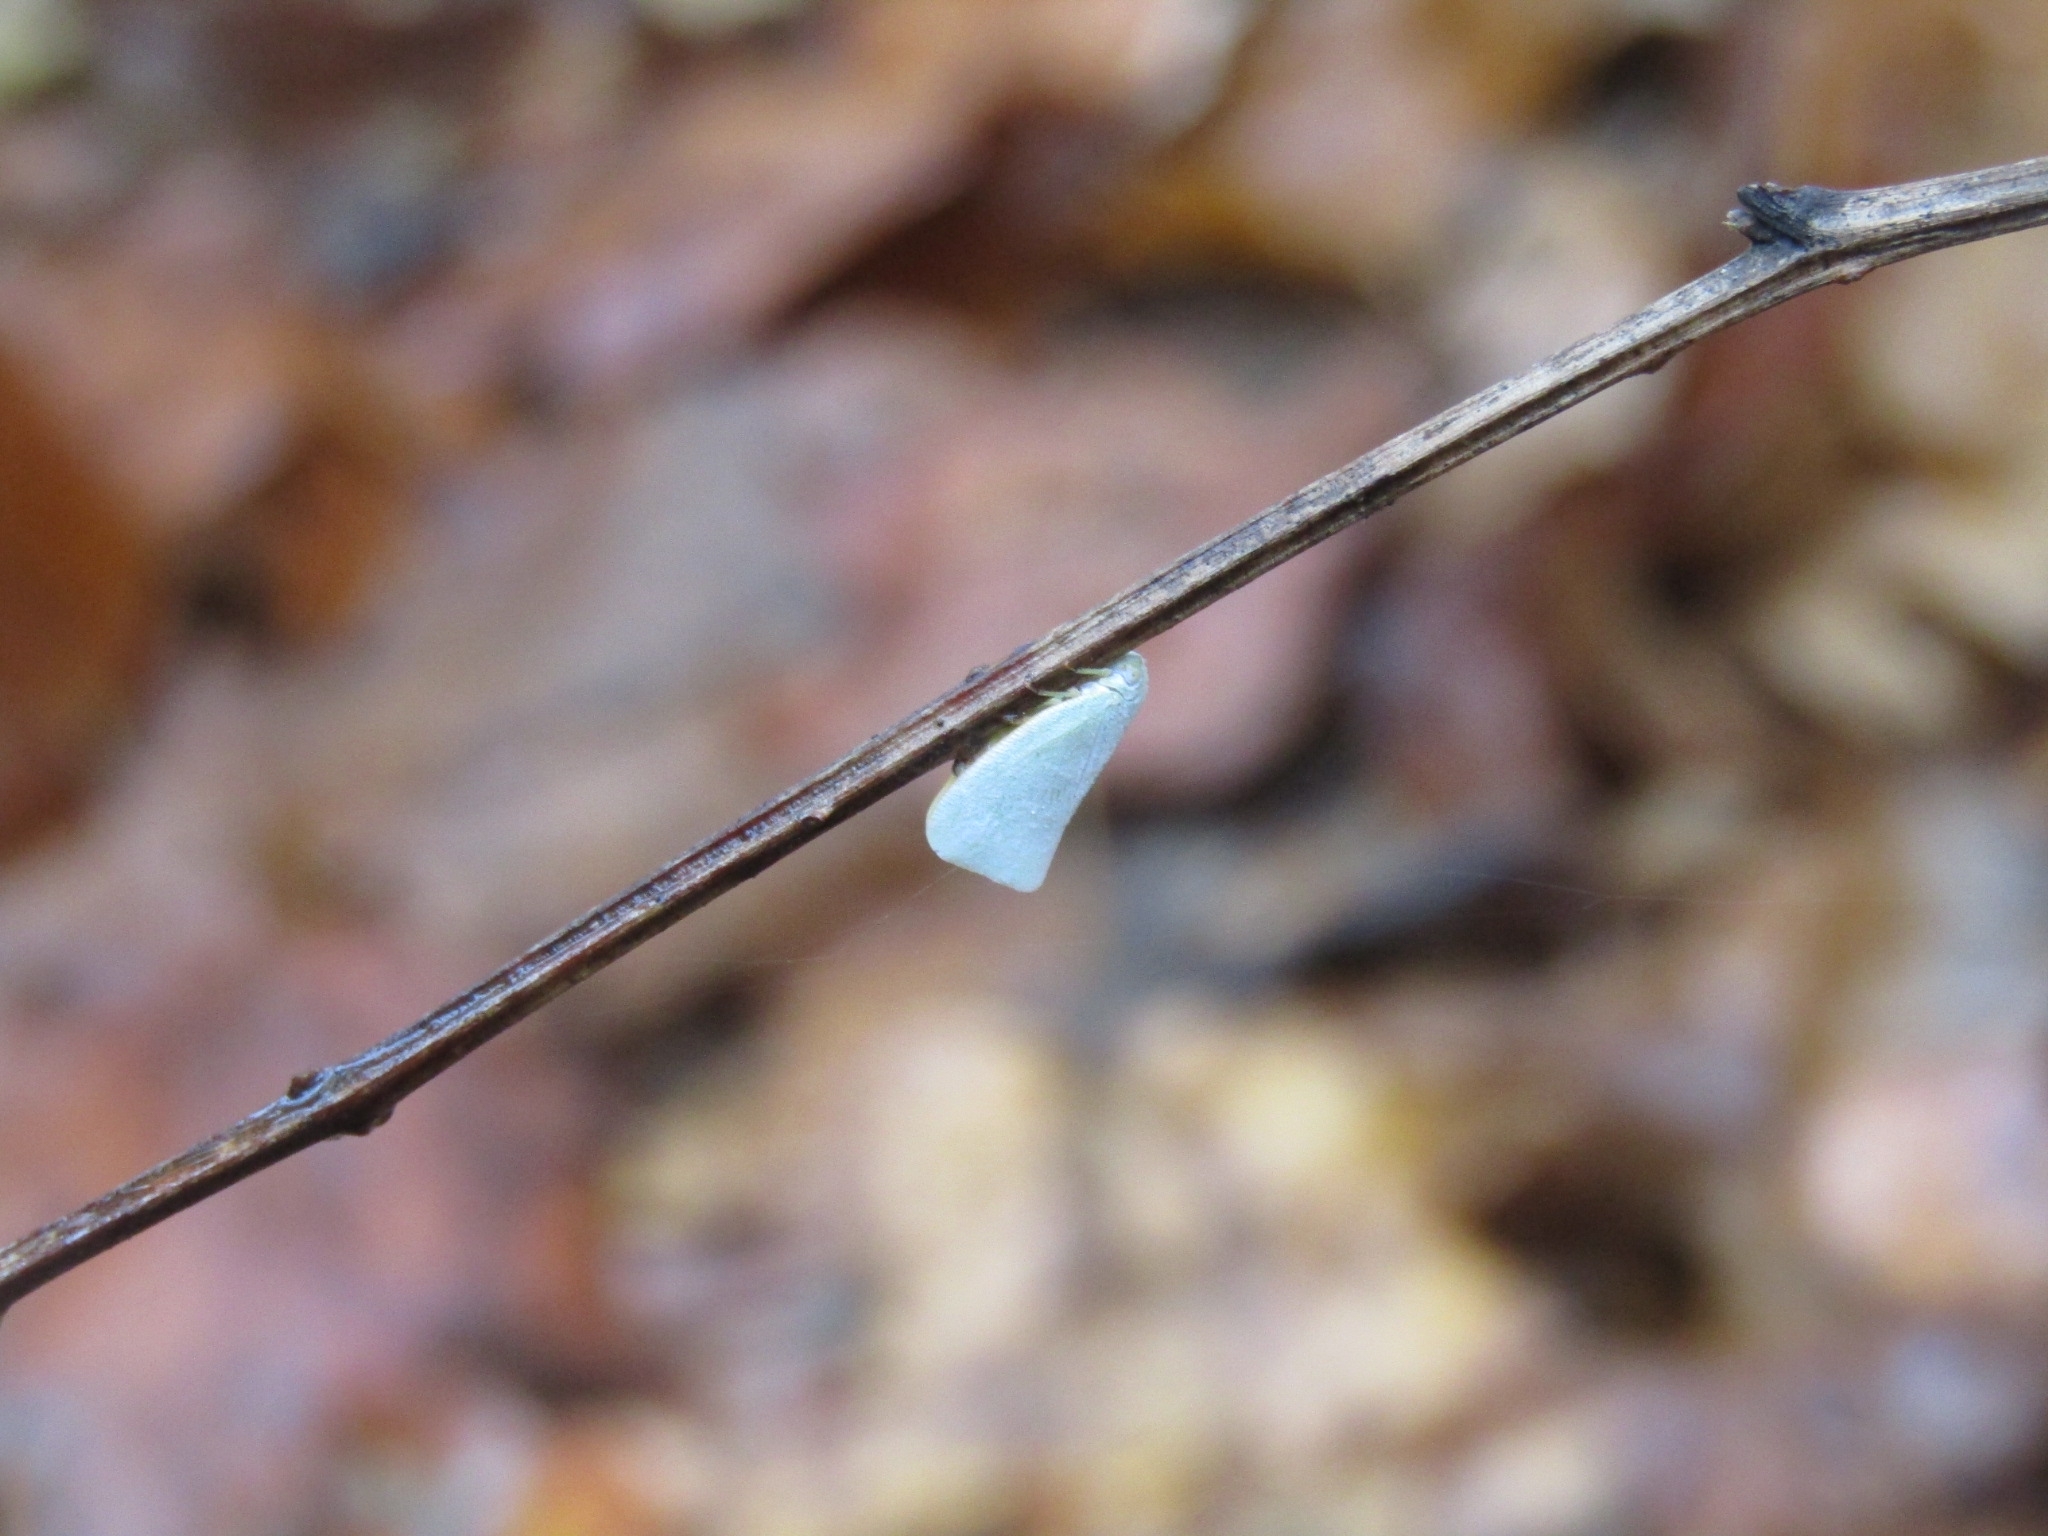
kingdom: Animalia
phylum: Arthropoda
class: Insecta
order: Hemiptera
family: Flatidae
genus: Flatormenis
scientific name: Flatormenis proxima
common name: Northern flatid planthopper
